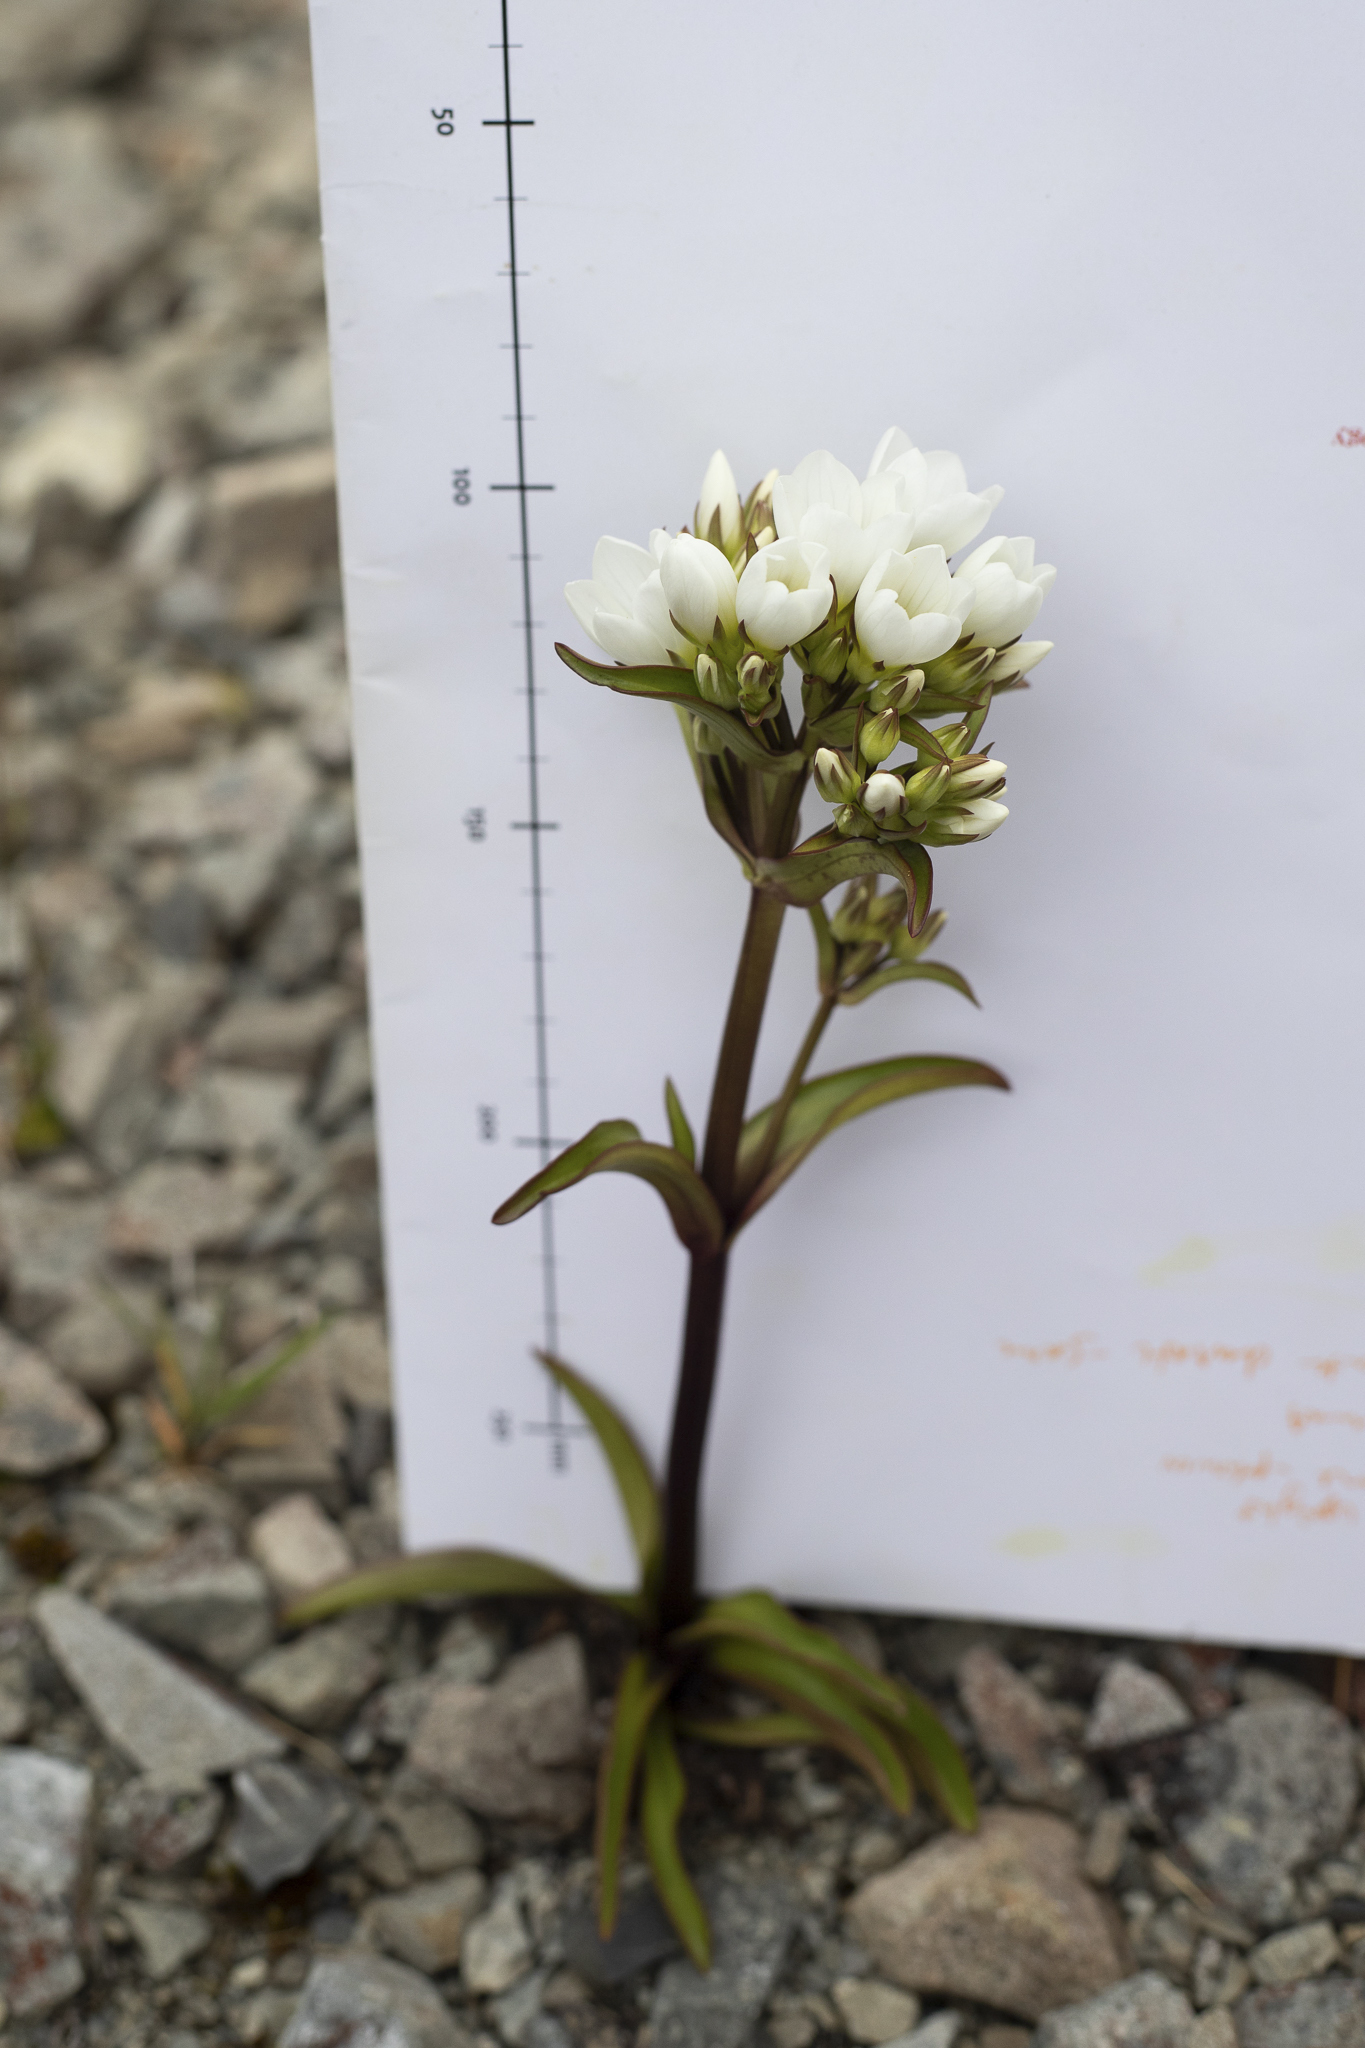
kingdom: Plantae
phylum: Tracheophyta
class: Magnoliopsida
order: Gentianales
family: Gentianaceae
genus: Gentianella
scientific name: Gentianella corymbifera
